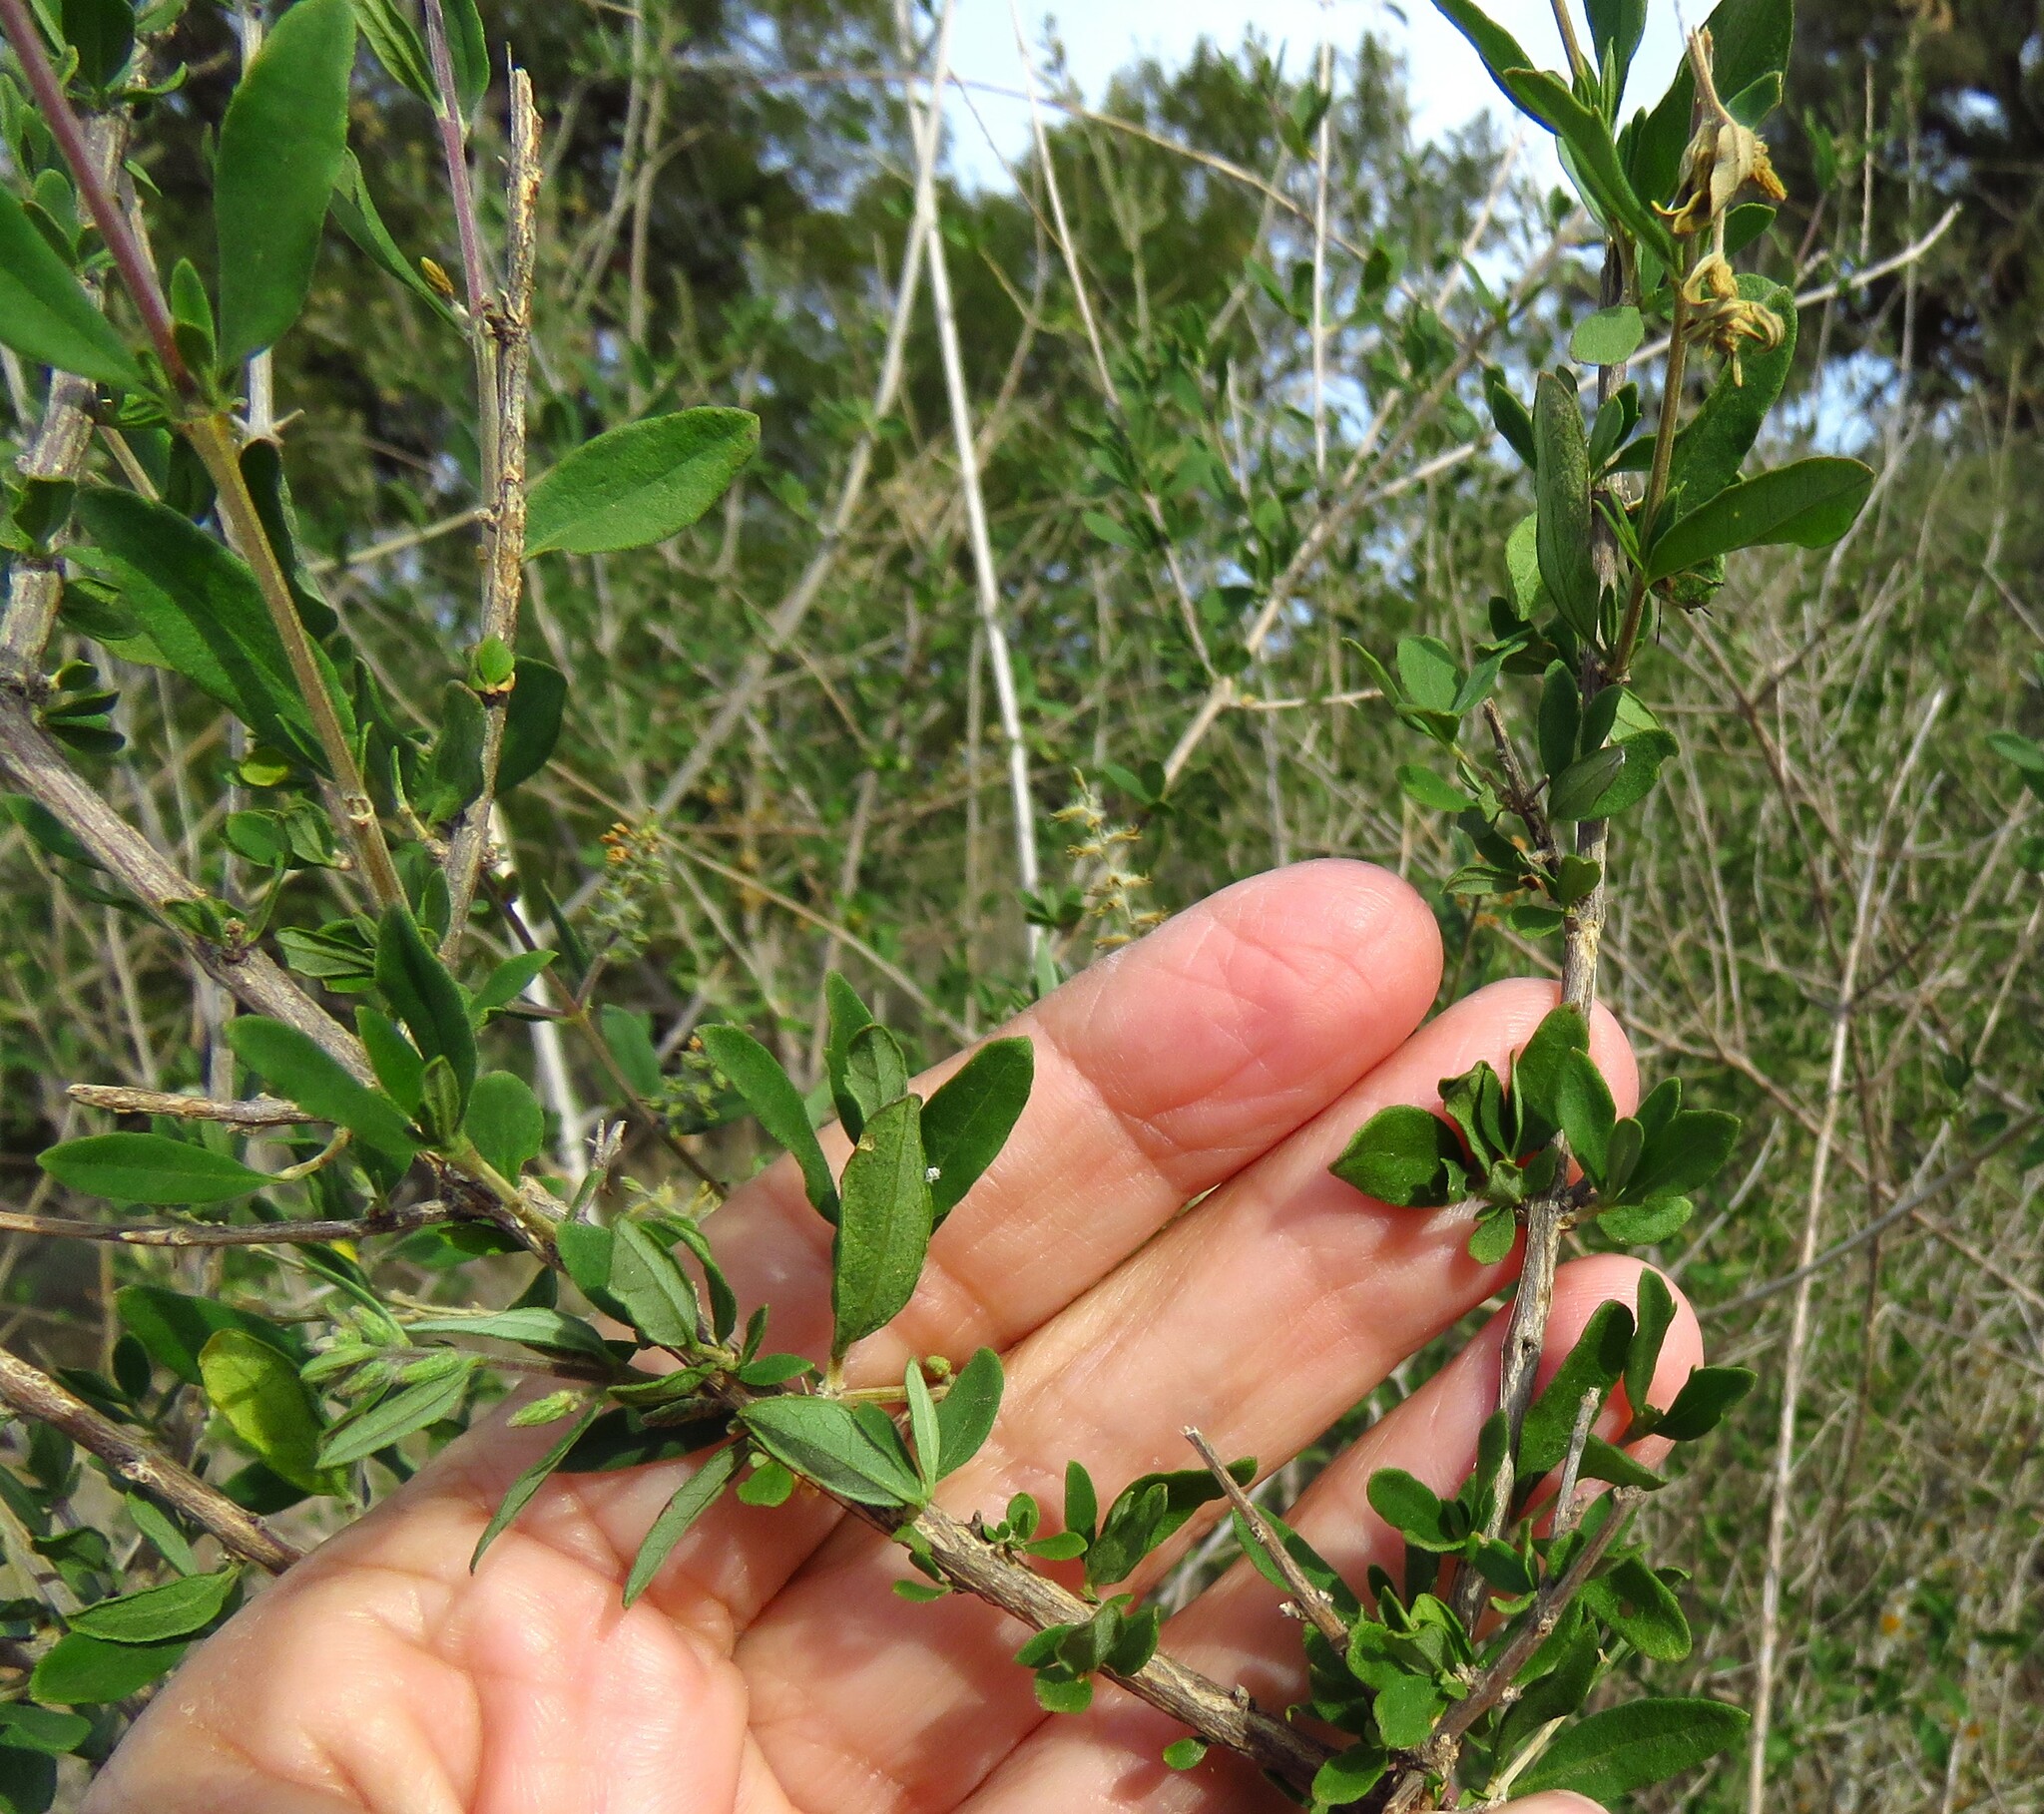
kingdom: Plantae
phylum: Tracheophyta
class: Magnoliopsida
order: Lamiales
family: Verbenaceae
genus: Aloysia
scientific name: Aloysia gratissima
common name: Common bee-brush
